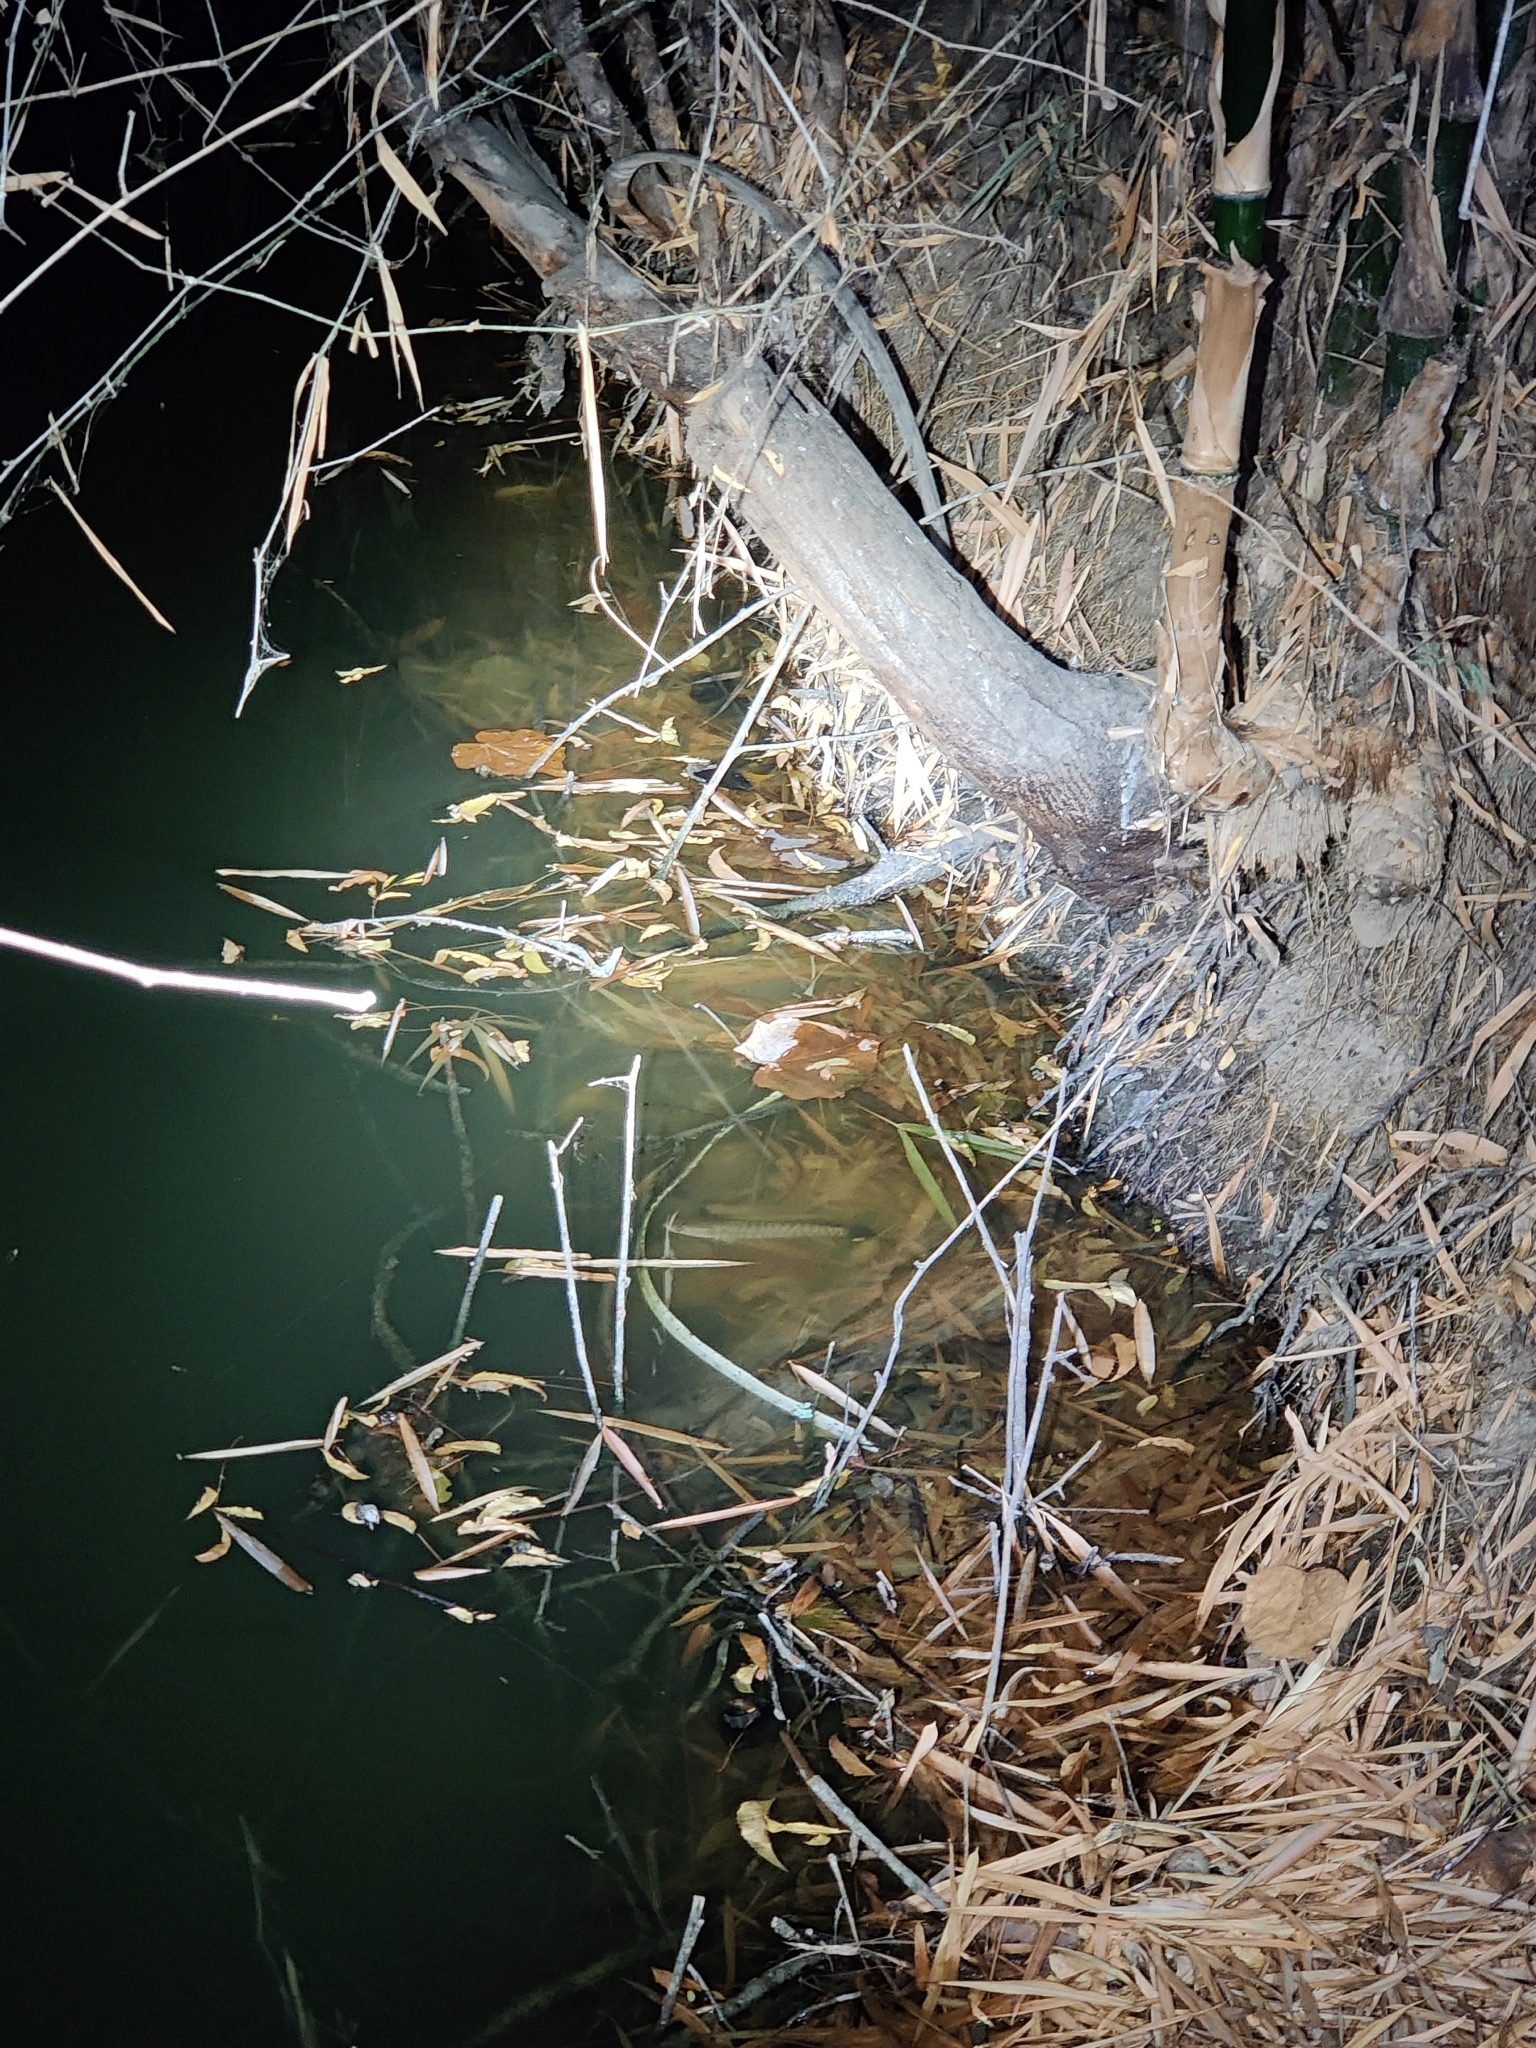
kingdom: Animalia
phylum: Chordata
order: Perciformes
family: Channidae
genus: Channa
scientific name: Channa striata
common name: Striped snakehead
